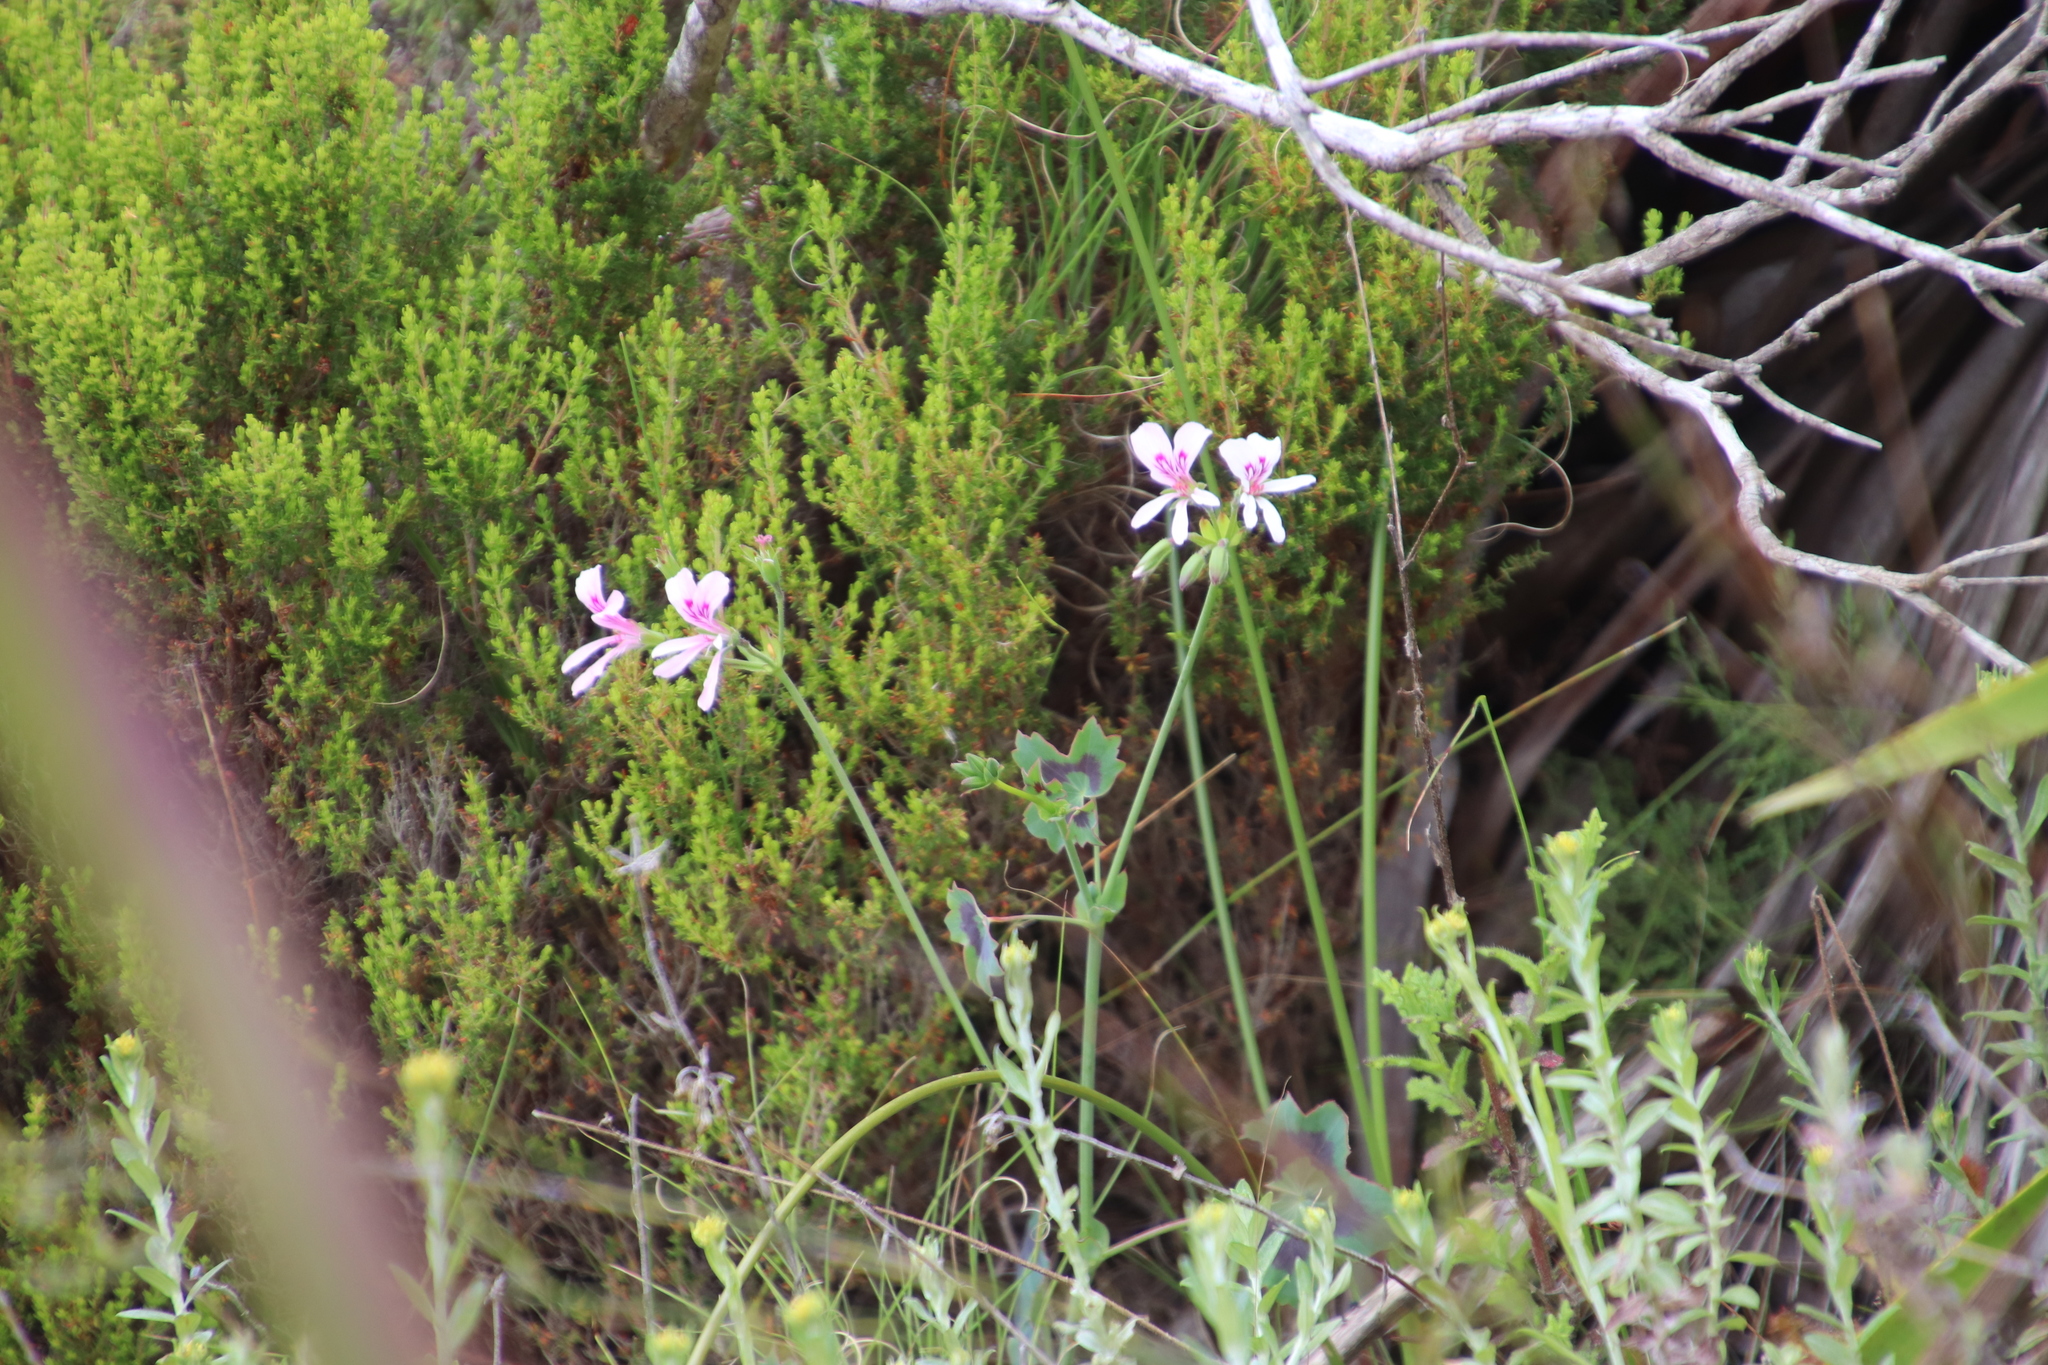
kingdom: Plantae
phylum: Tracheophyta
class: Magnoliopsida
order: Geraniales
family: Geraniaceae
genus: Pelargonium
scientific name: Pelargonium tabulare
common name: Table mountain pelargonium
